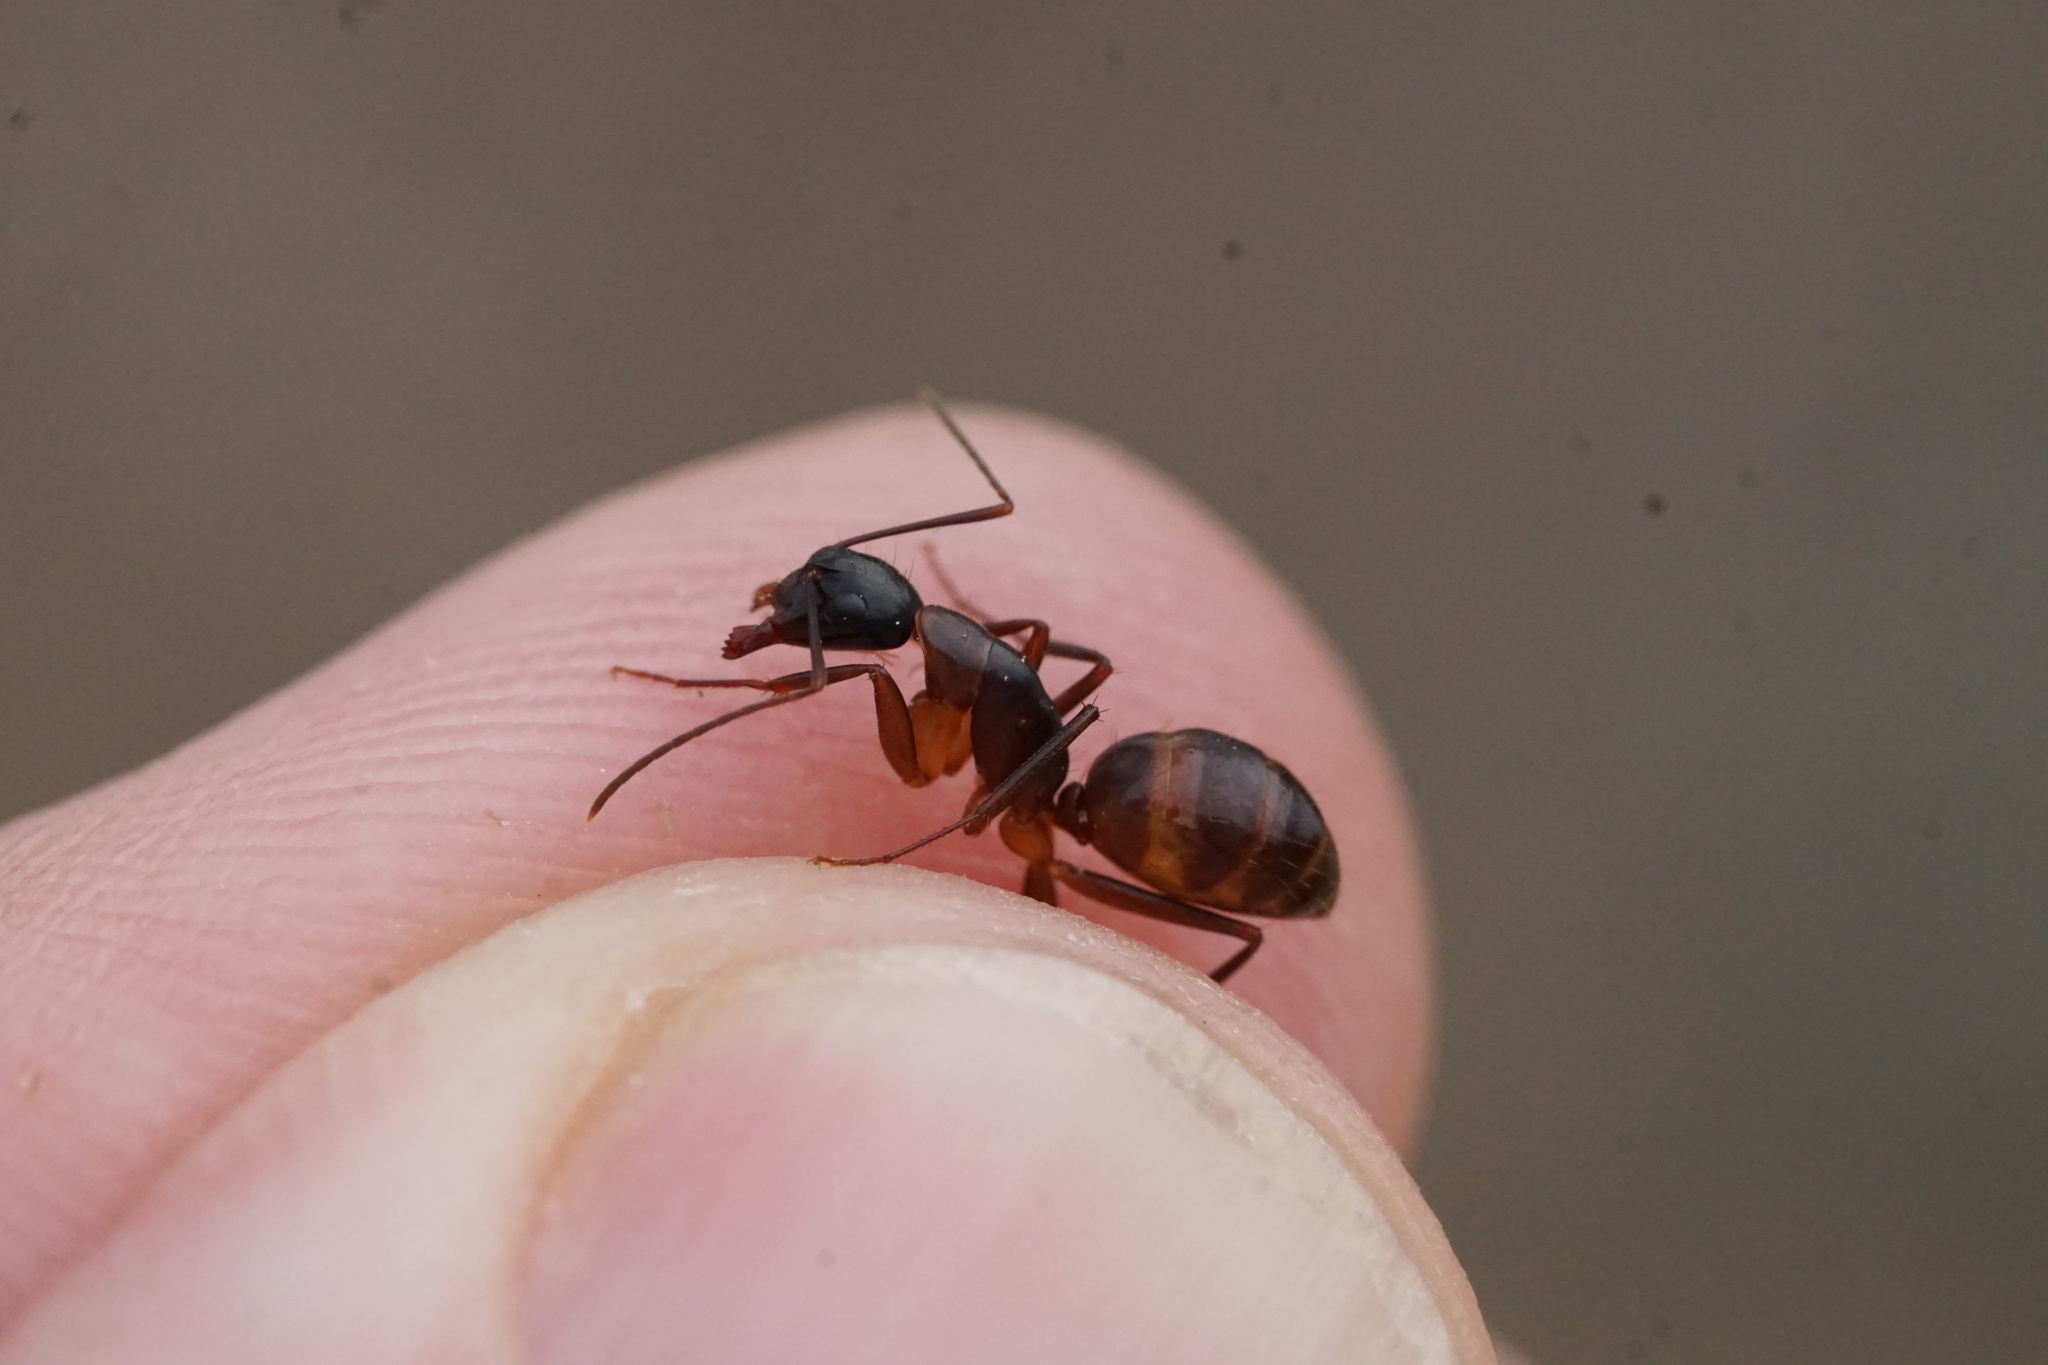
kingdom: Animalia
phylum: Arthropoda
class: Insecta
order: Hymenoptera
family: Formicidae
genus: Camponotus
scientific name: Camponotus americanus
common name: American carpenter ant
